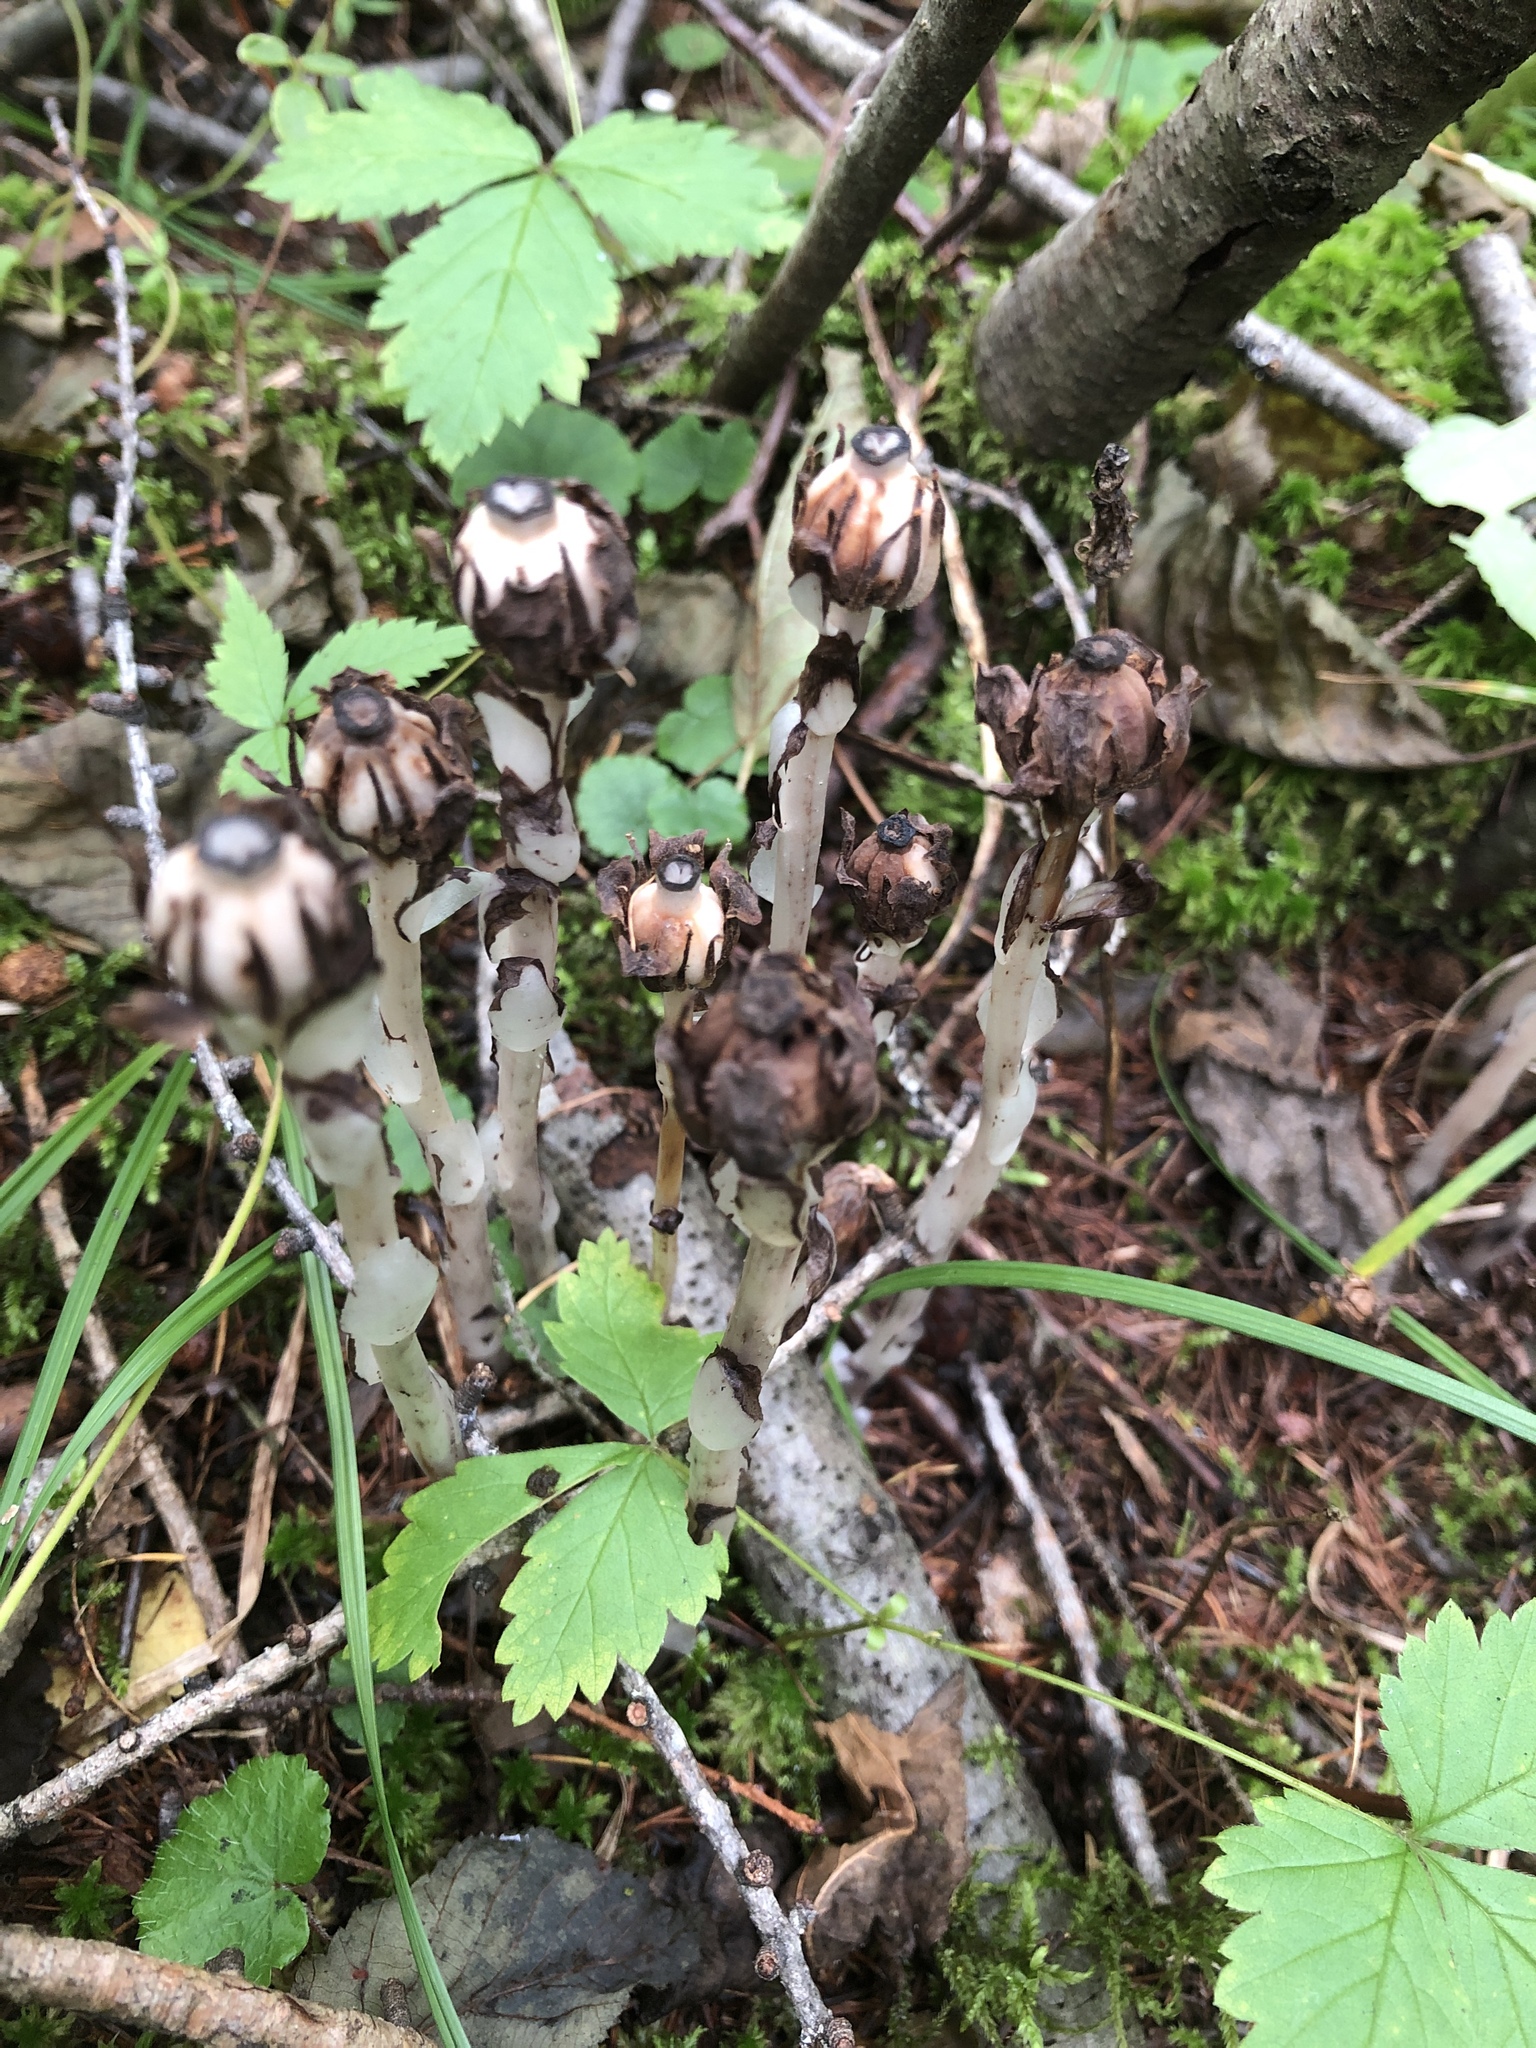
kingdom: Plantae
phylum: Tracheophyta
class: Magnoliopsida
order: Ericales
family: Ericaceae
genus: Monotropa
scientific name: Monotropa uniflora
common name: Convulsion root
